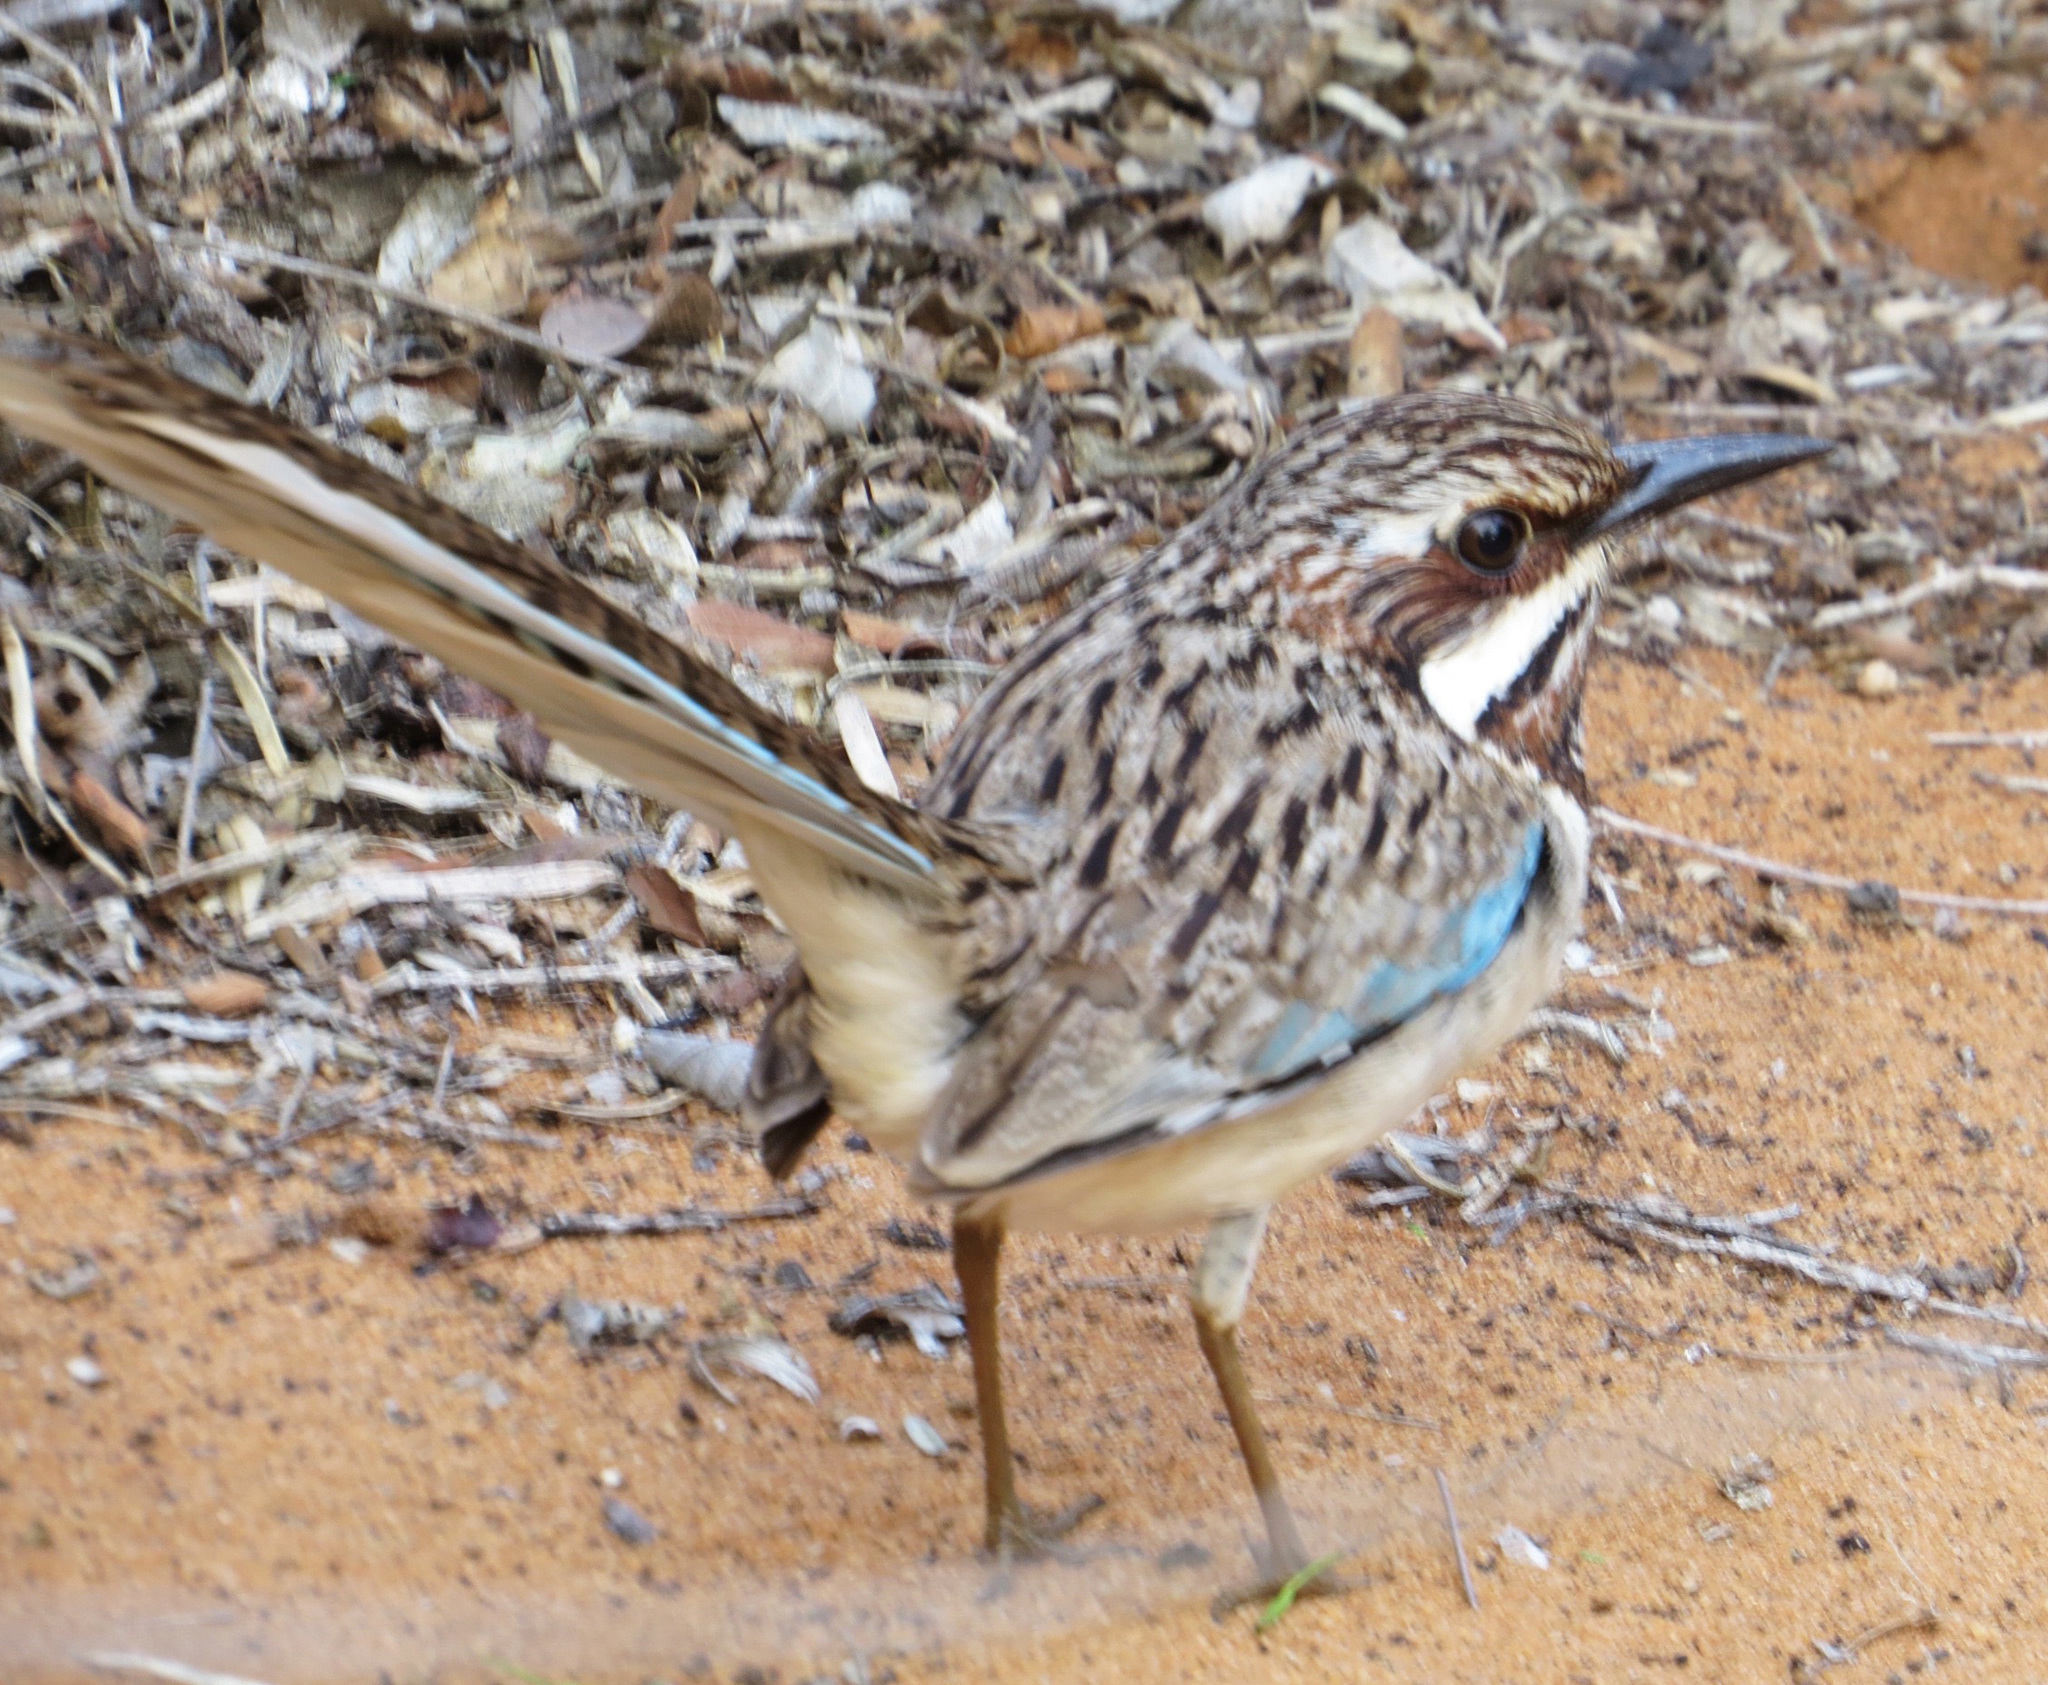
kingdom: Animalia
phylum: Chordata
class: Aves
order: Coraciiformes
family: Brachypteraciidae
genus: Uratelornis
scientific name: Uratelornis chimaera
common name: Long-tailed ground roller
